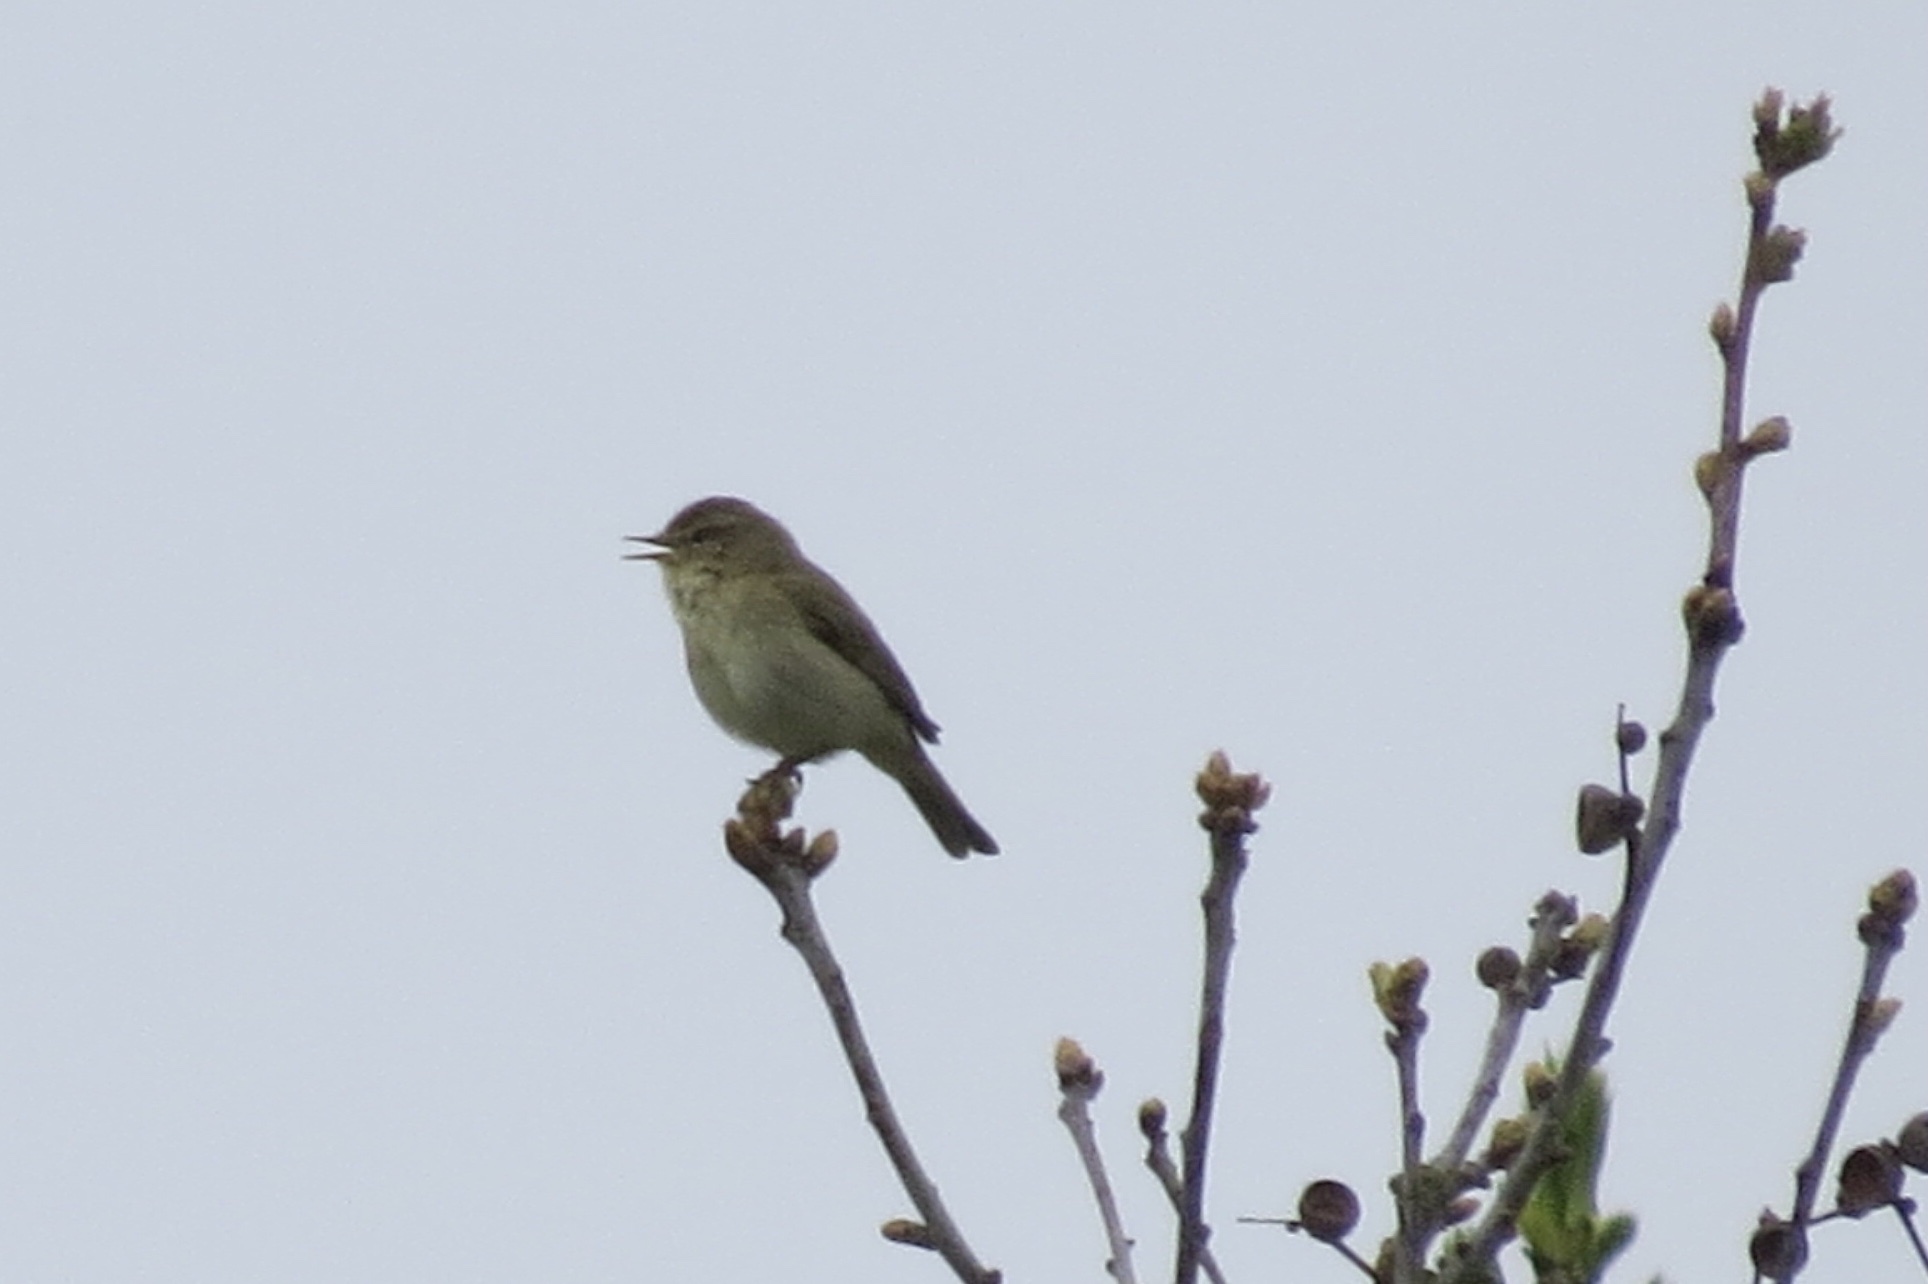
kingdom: Animalia
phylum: Chordata
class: Aves
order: Passeriformes
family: Phylloscopidae
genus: Phylloscopus
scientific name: Phylloscopus collybita
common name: Common chiffchaff
